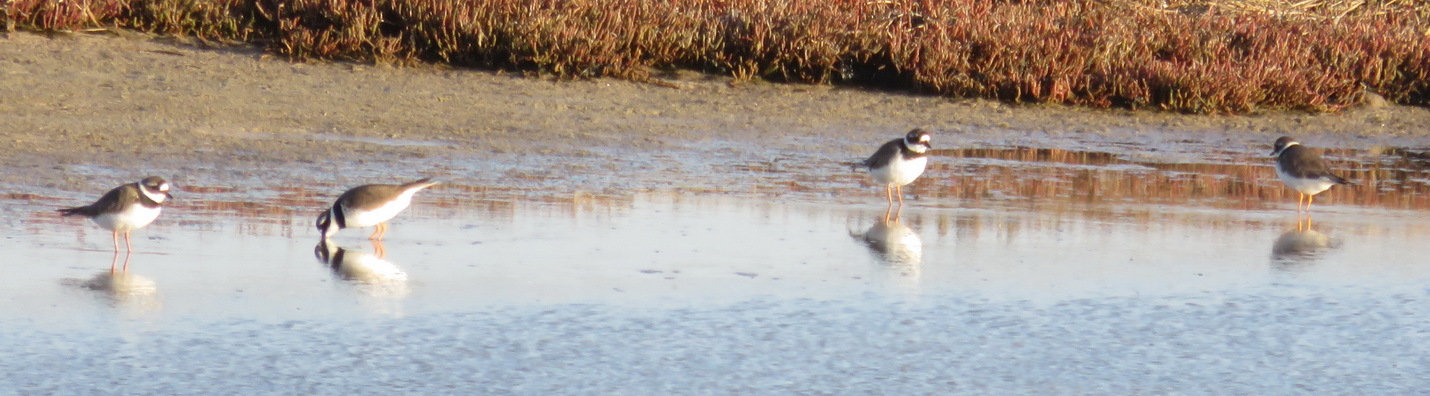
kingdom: Animalia
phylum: Chordata
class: Aves
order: Charadriiformes
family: Charadriidae
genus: Charadrius
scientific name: Charadrius hiaticula
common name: Common ringed plover
